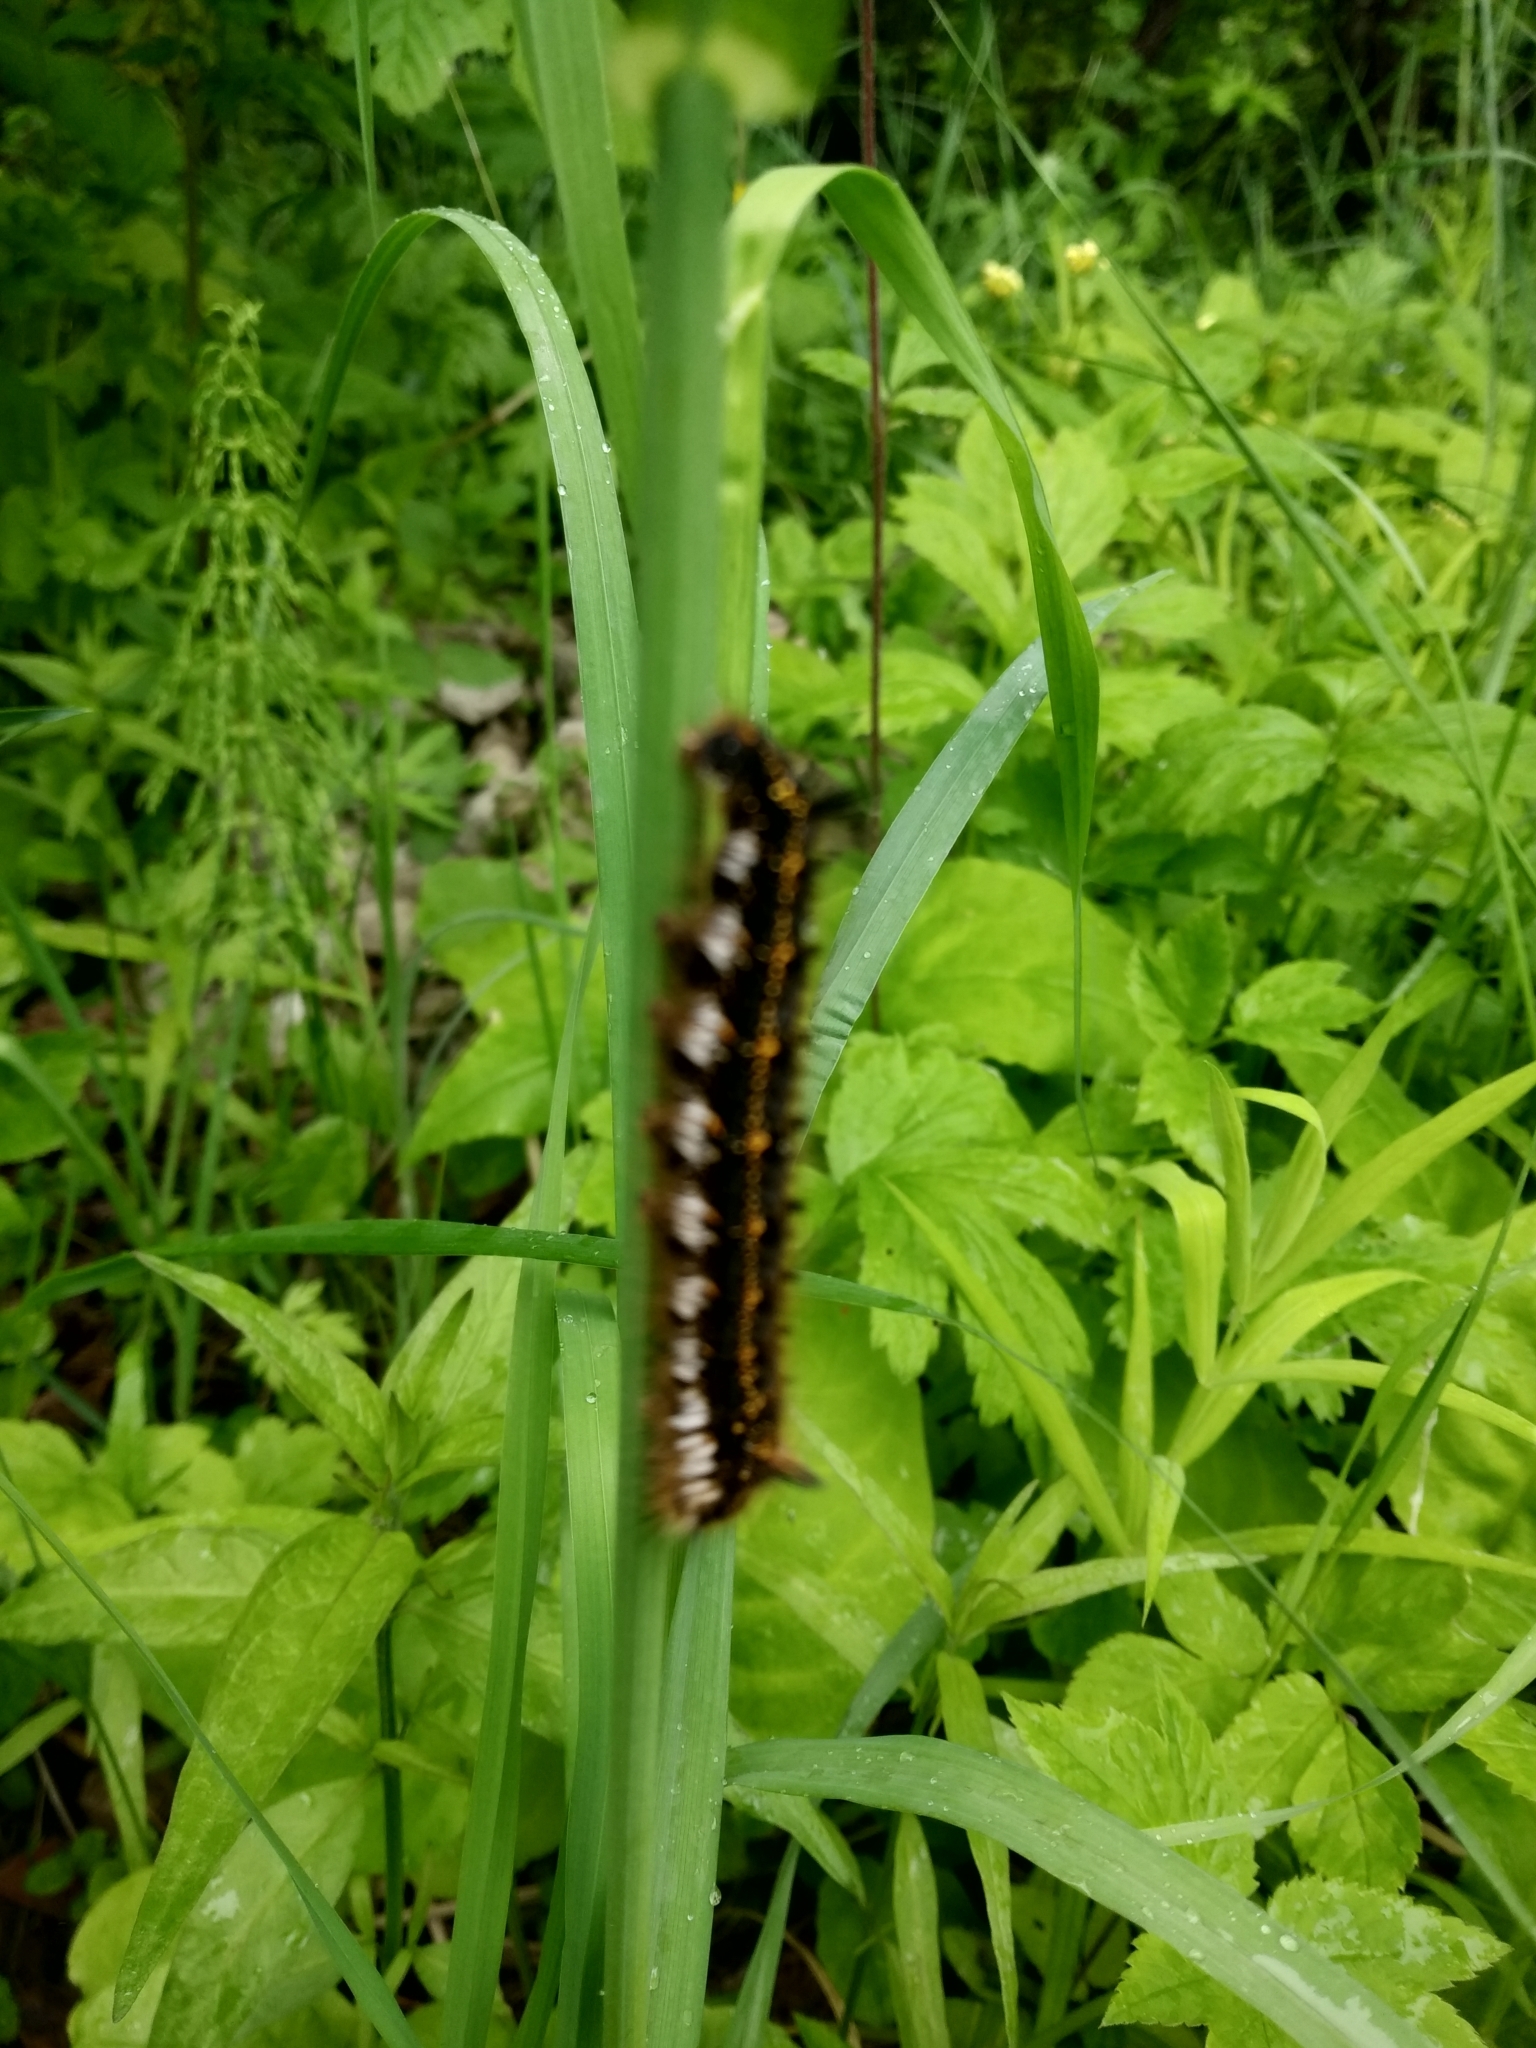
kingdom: Animalia
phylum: Arthropoda
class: Insecta
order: Lepidoptera
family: Lasiocampidae
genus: Euthrix
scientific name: Euthrix potatoria
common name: Drinker
